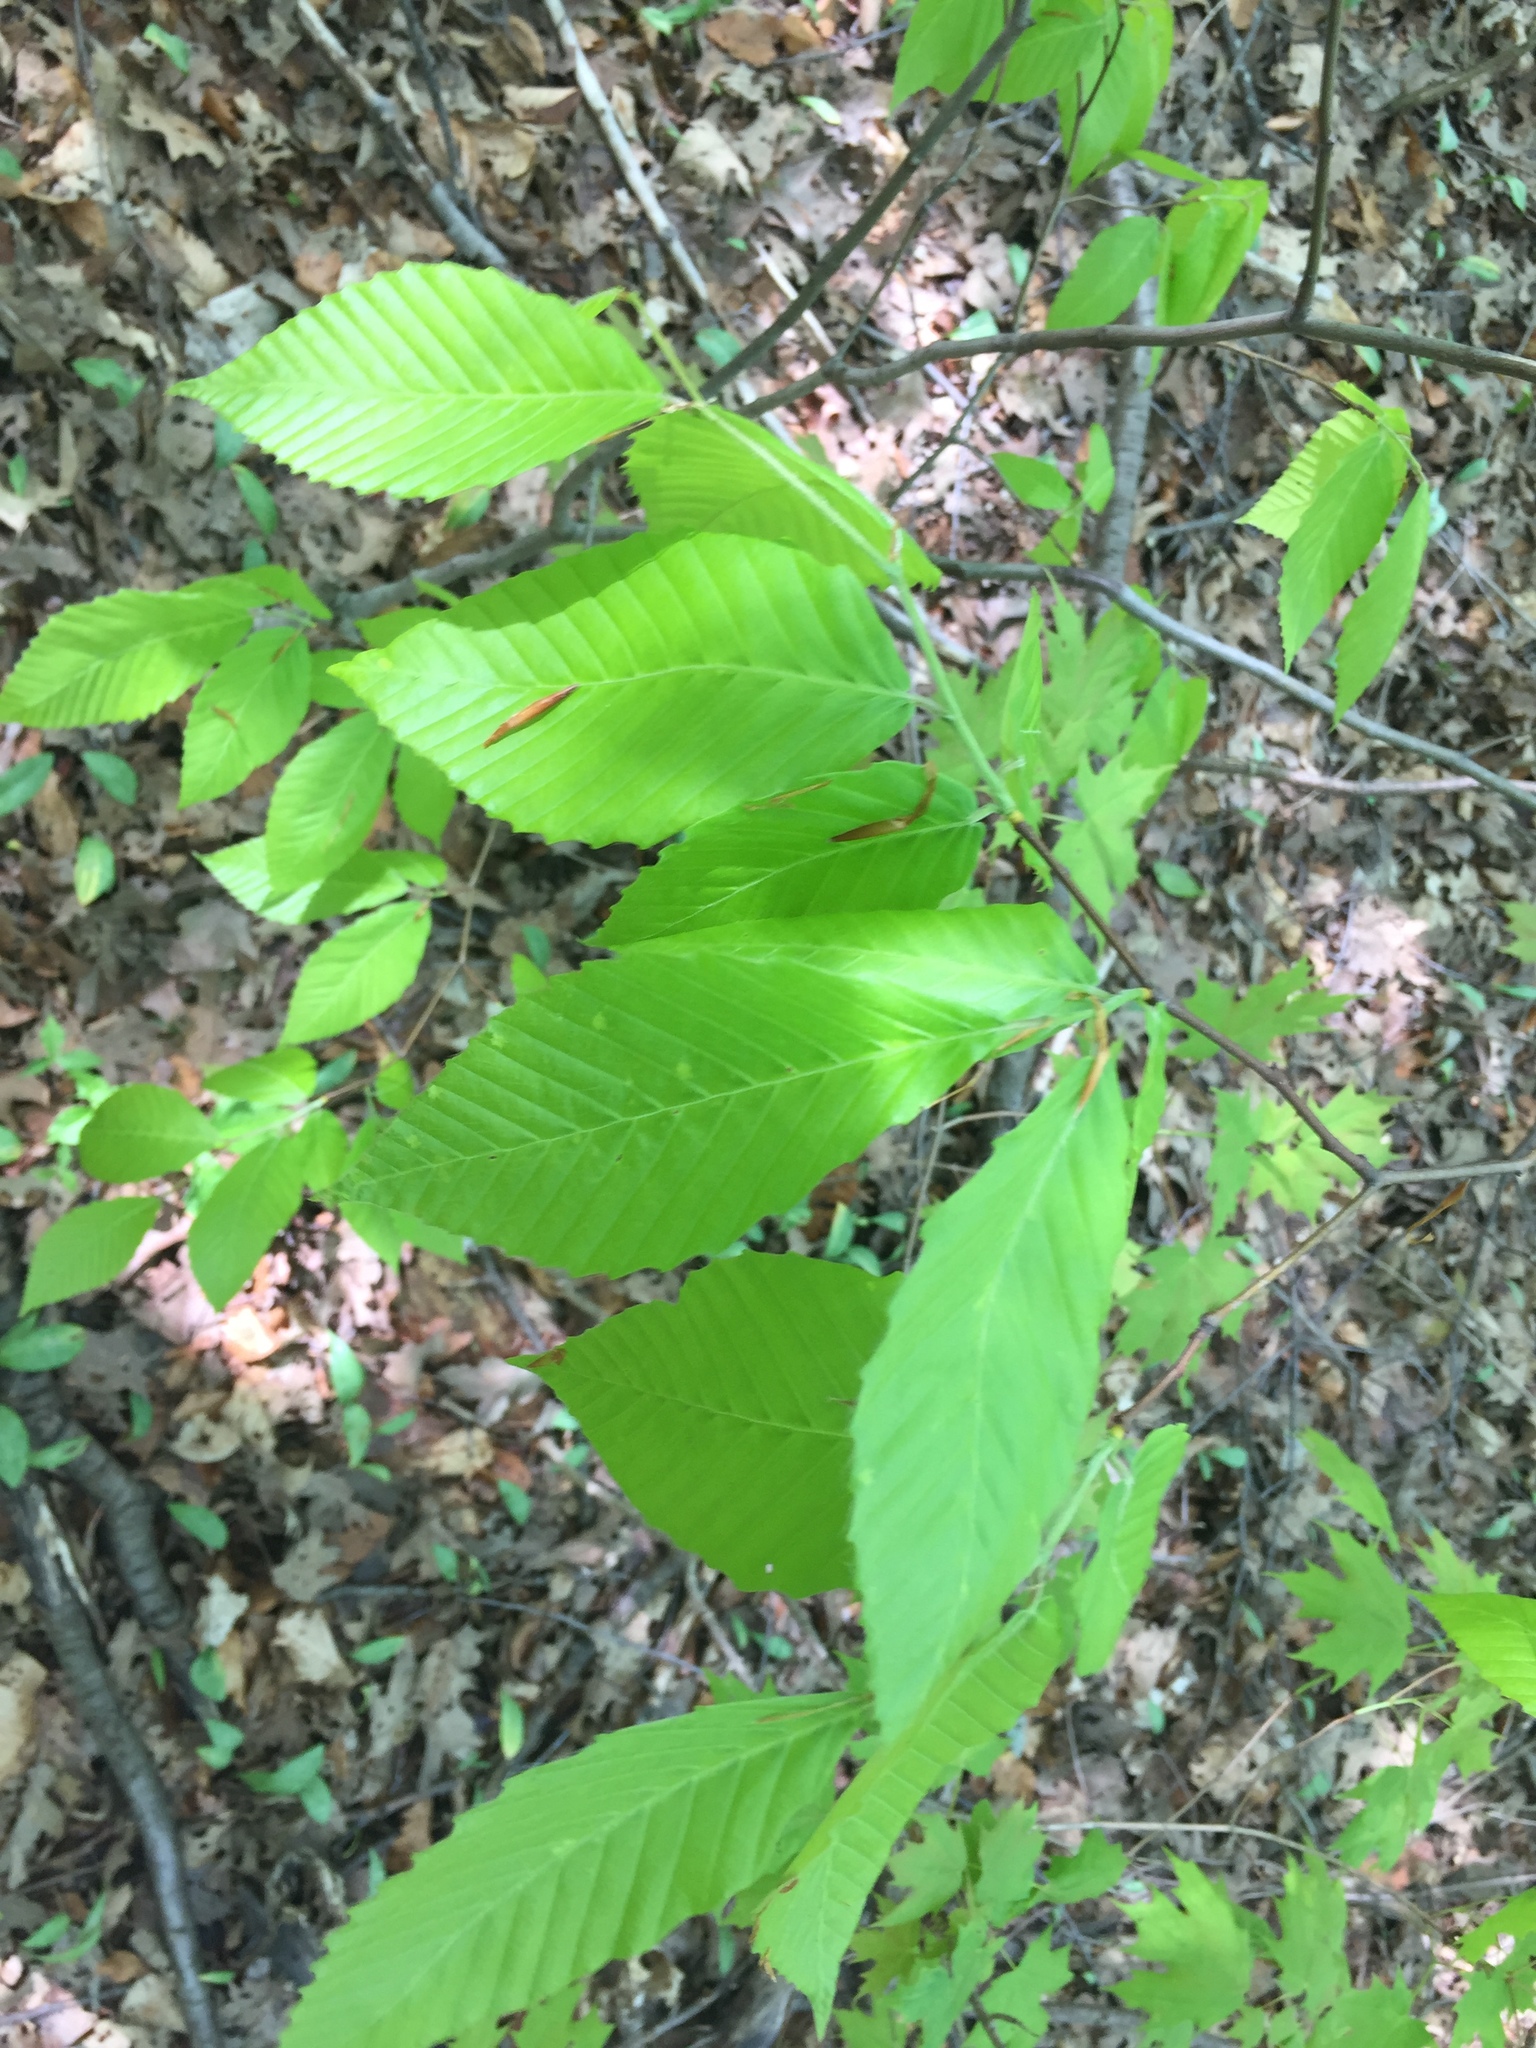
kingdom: Plantae
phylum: Tracheophyta
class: Magnoliopsida
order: Fagales
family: Fagaceae
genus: Fagus
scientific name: Fagus grandifolia
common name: American beech
